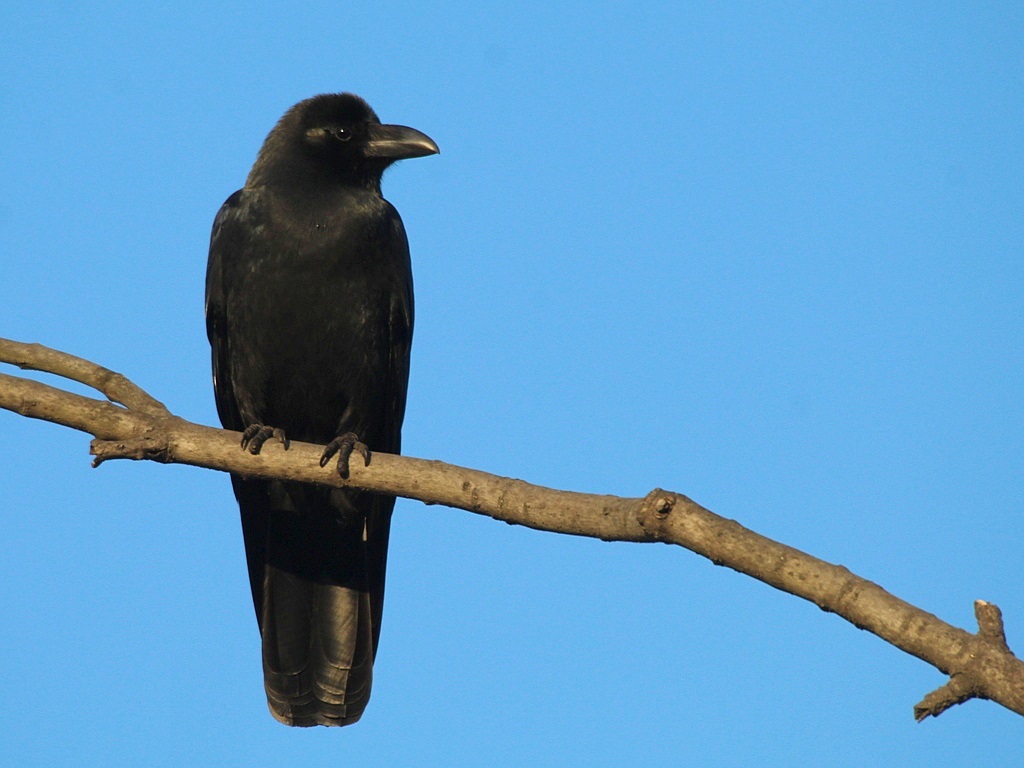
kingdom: Animalia
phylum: Chordata
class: Aves
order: Passeriformes
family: Corvidae
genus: Corvus
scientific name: Corvus macrorhynchos
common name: Large-billed crow
